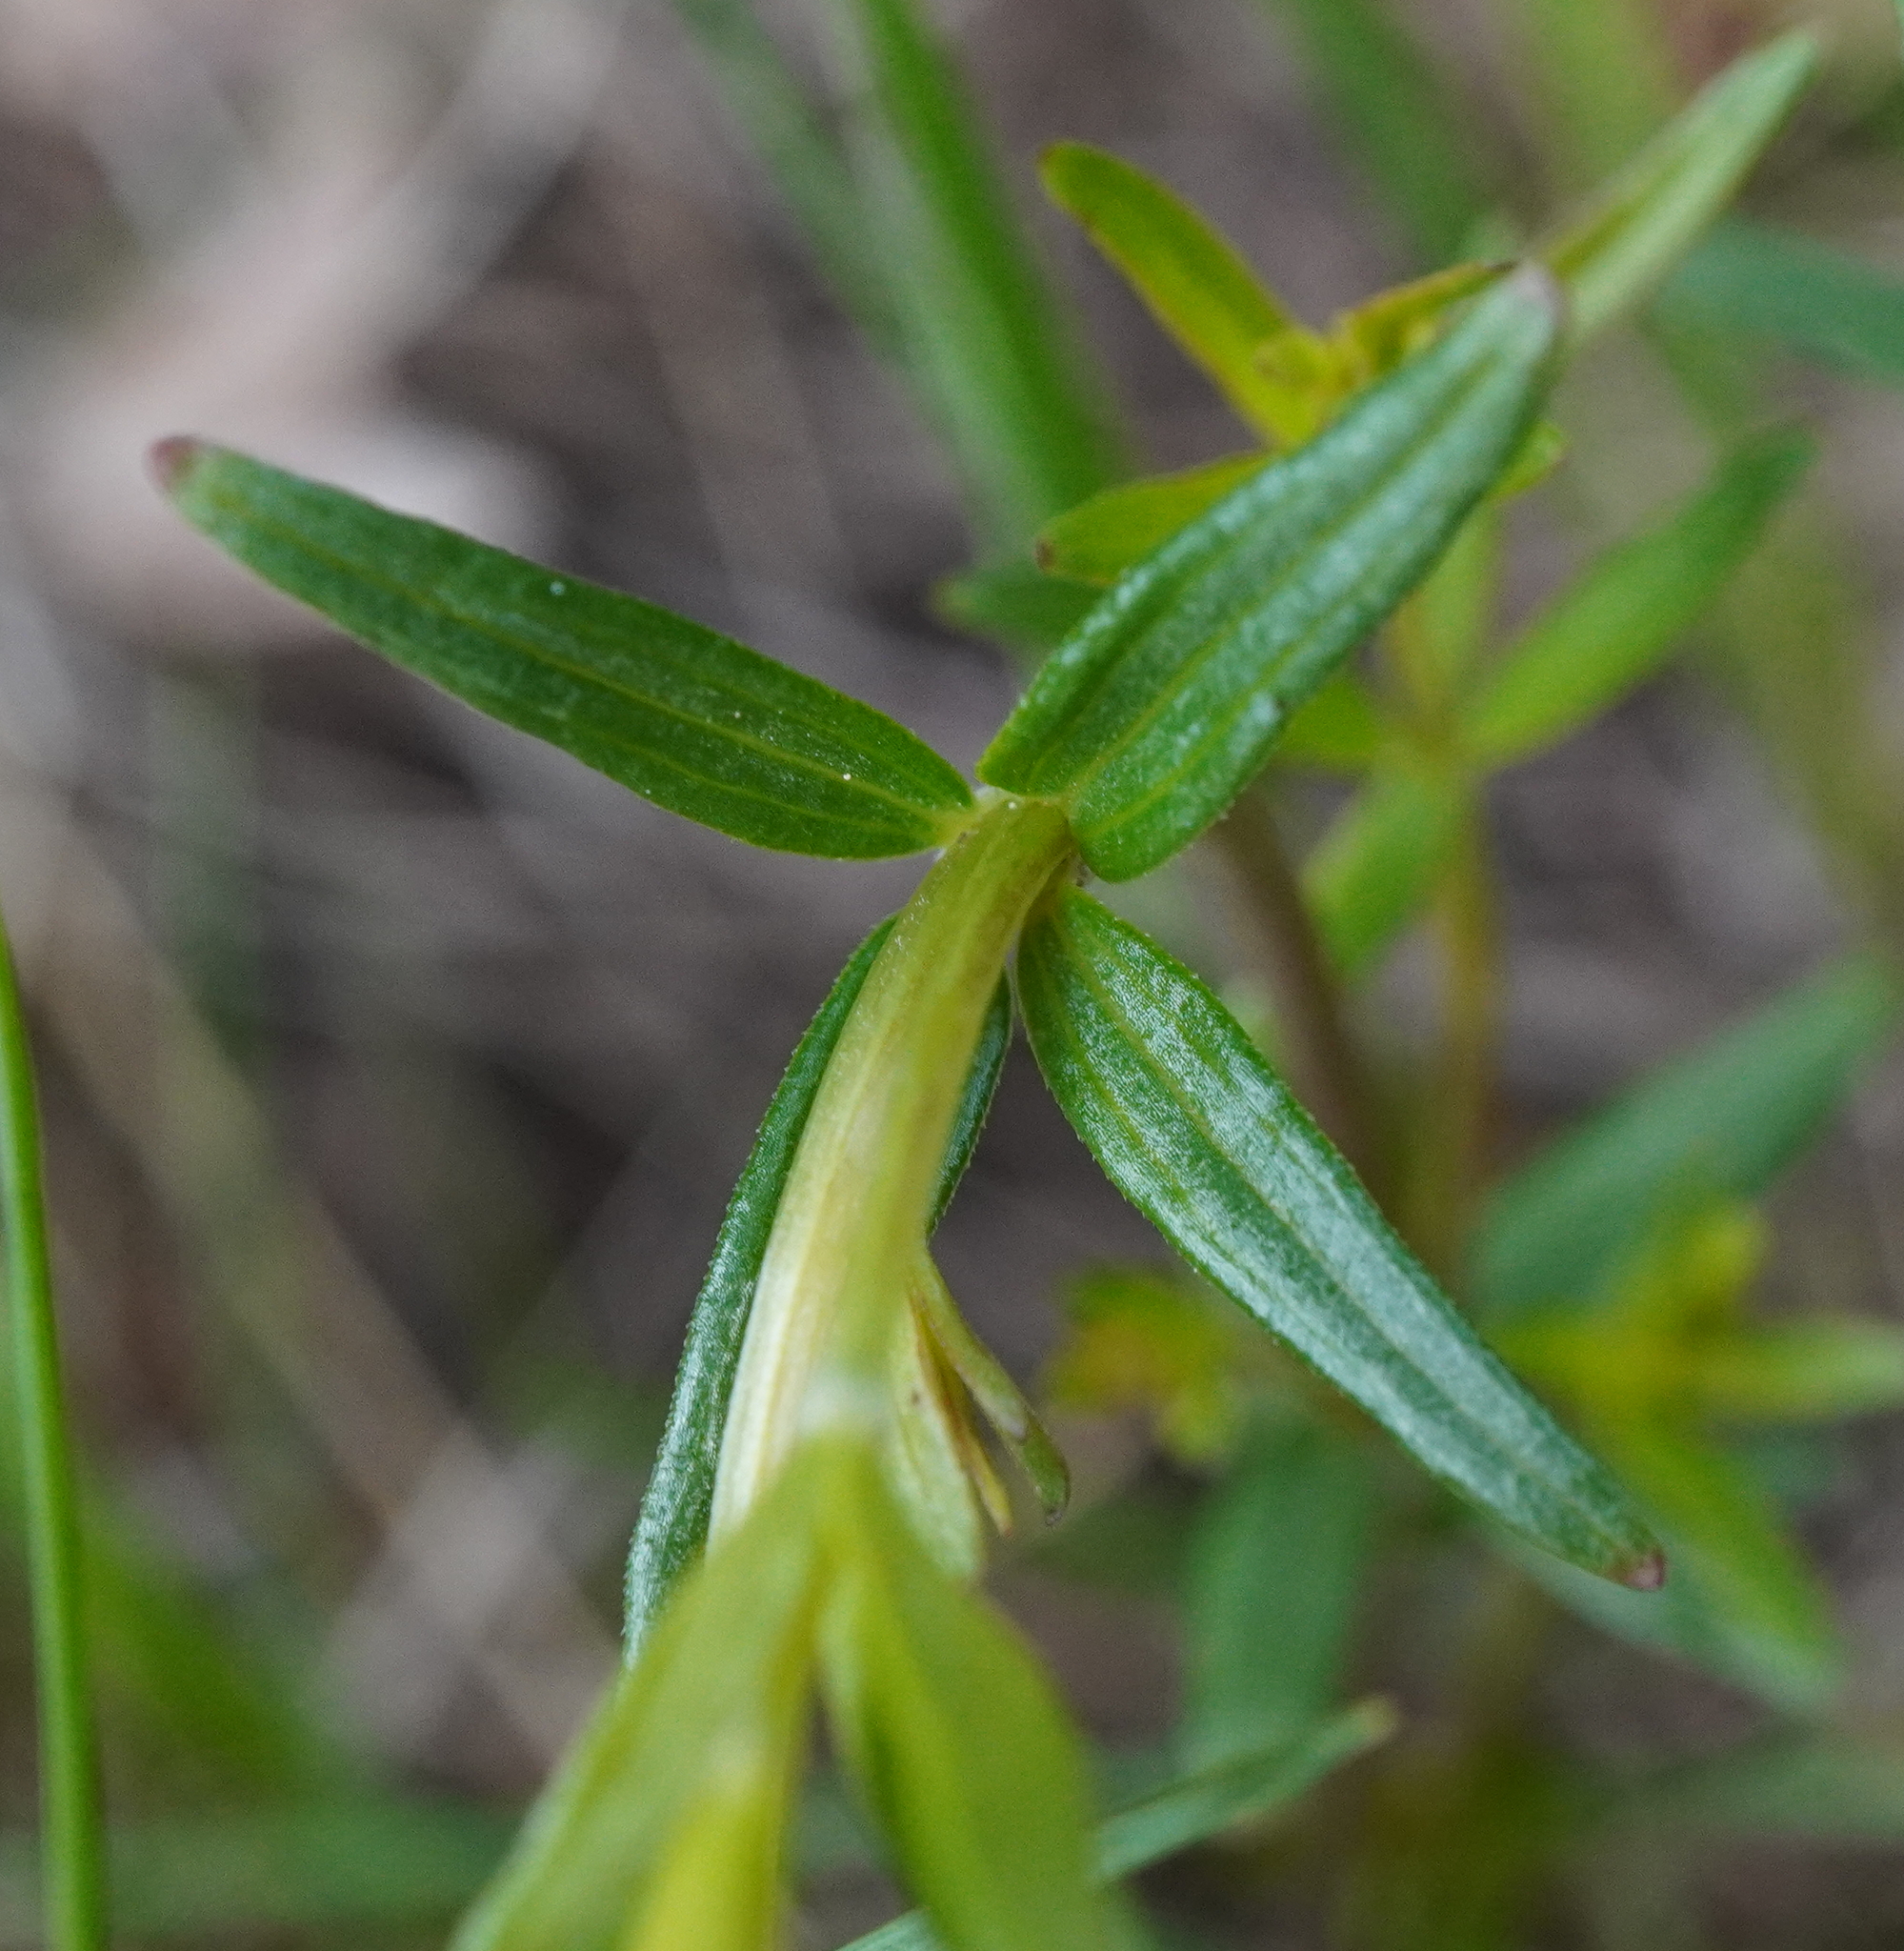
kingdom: Plantae
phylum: Tracheophyta
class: Magnoliopsida
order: Gentianales
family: Rubiaceae
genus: Galium
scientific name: Galium boreale
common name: Northern bedstraw
